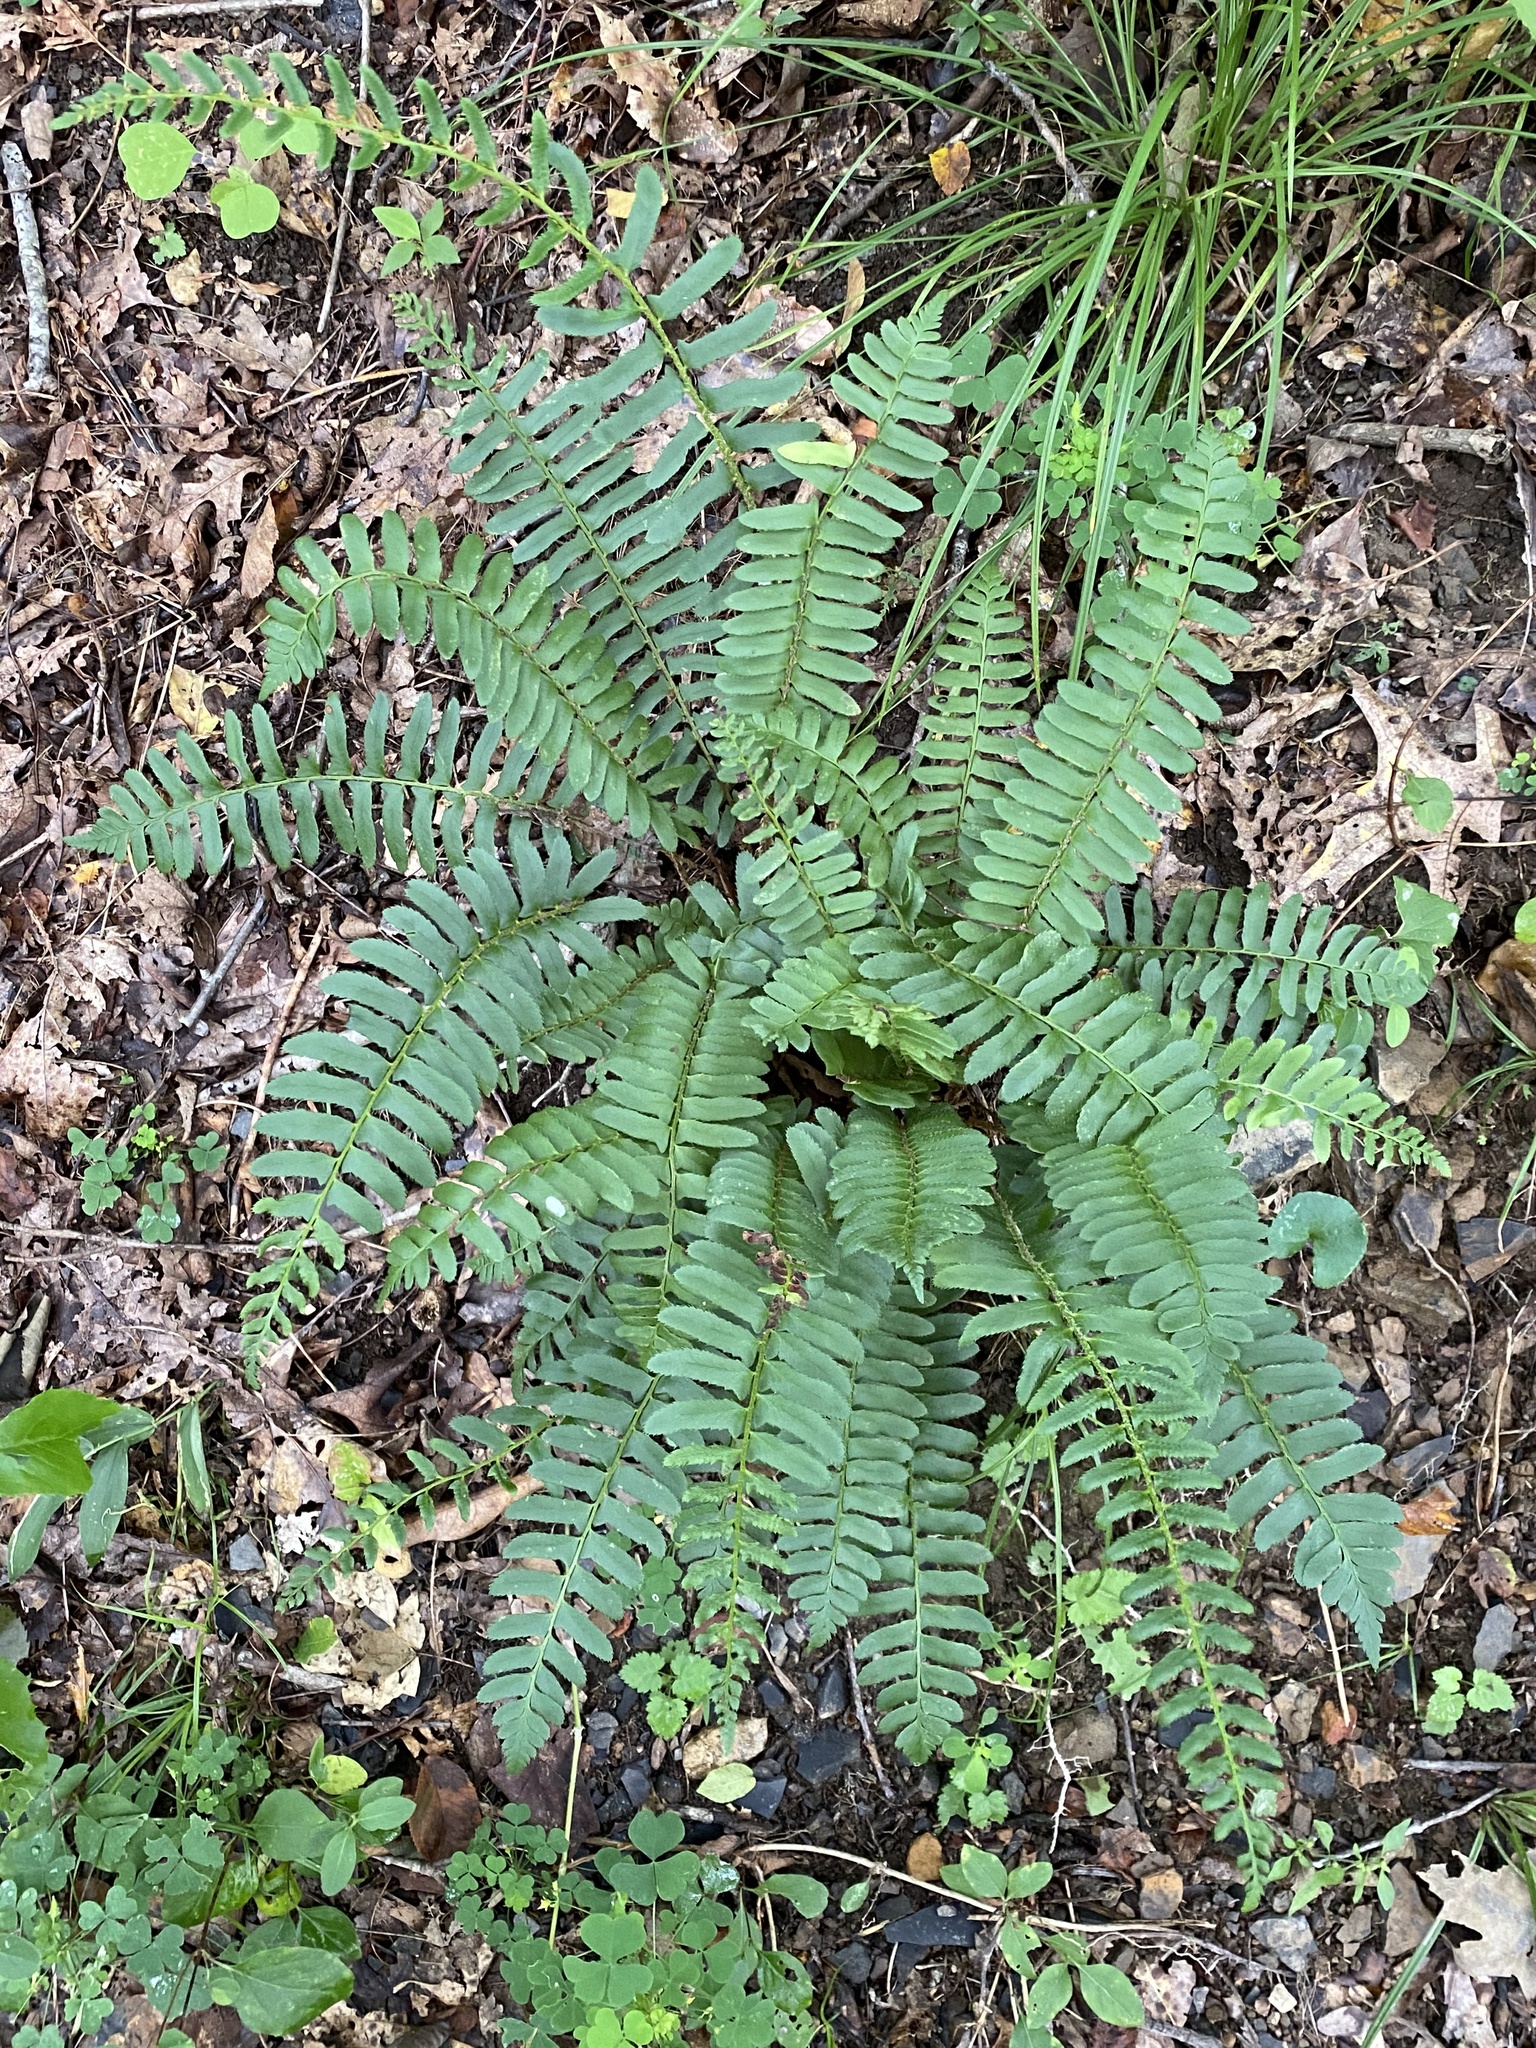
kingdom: Plantae
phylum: Tracheophyta
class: Polypodiopsida
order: Polypodiales
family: Dryopteridaceae
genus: Polystichum
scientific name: Polystichum acrostichoides
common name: Christmas fern
